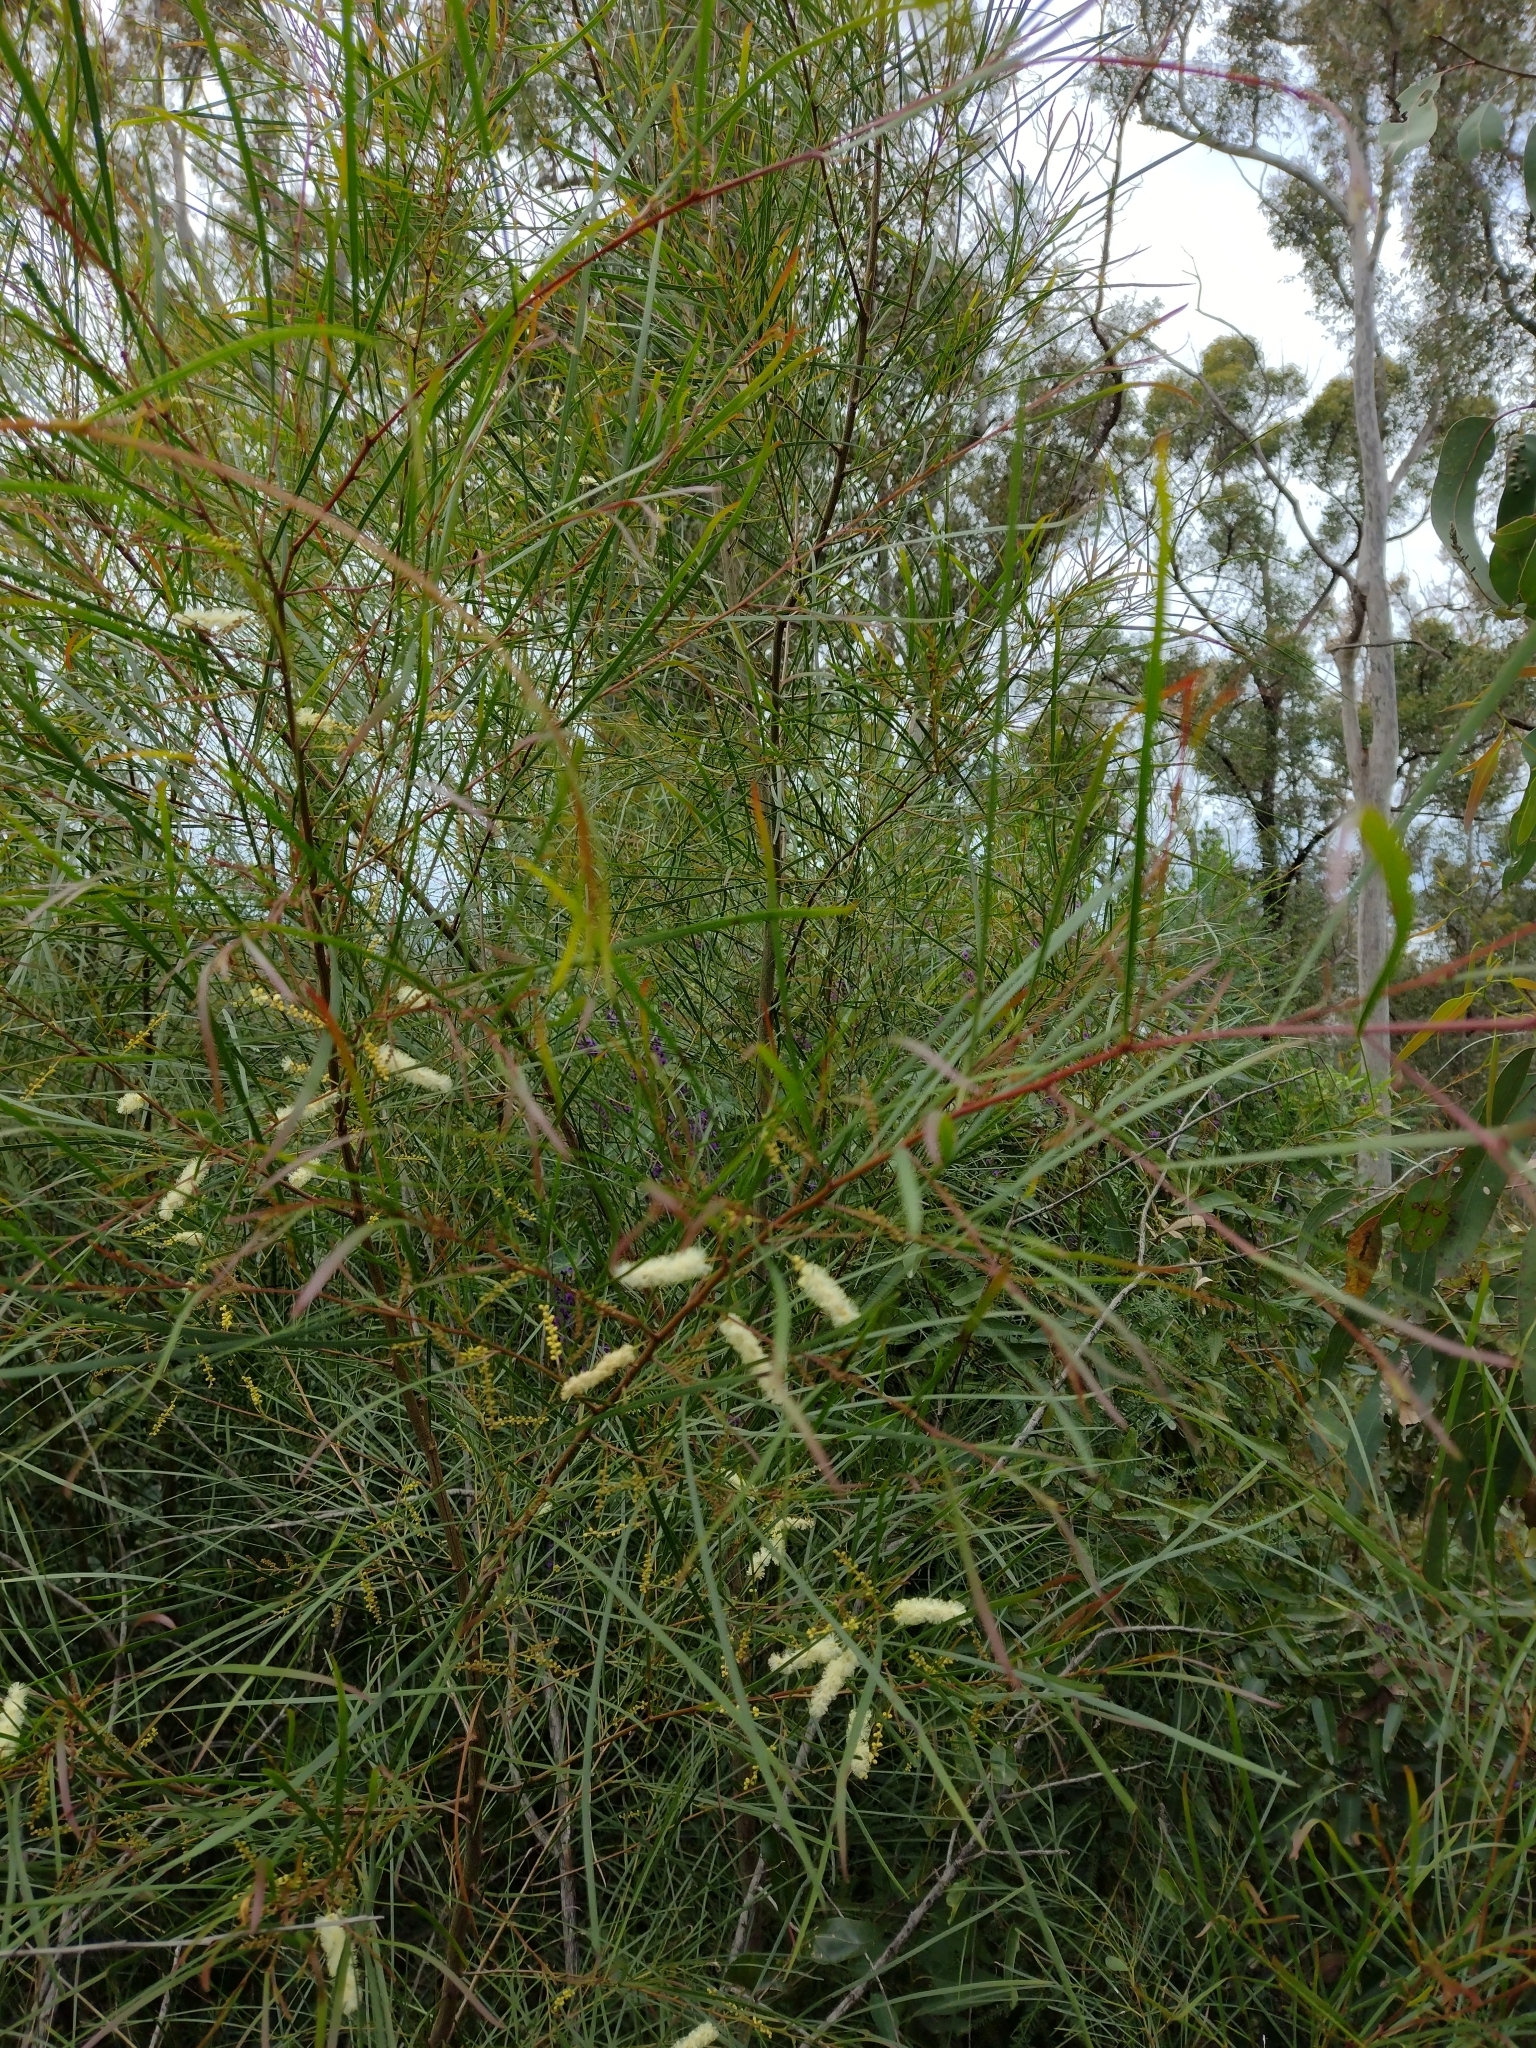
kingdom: Plantae
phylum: Tracheophyta
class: Magnoliopsida
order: Fabales
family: Fabaceae
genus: Acacia
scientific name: Acacia longissima
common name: Longleaf wattle
